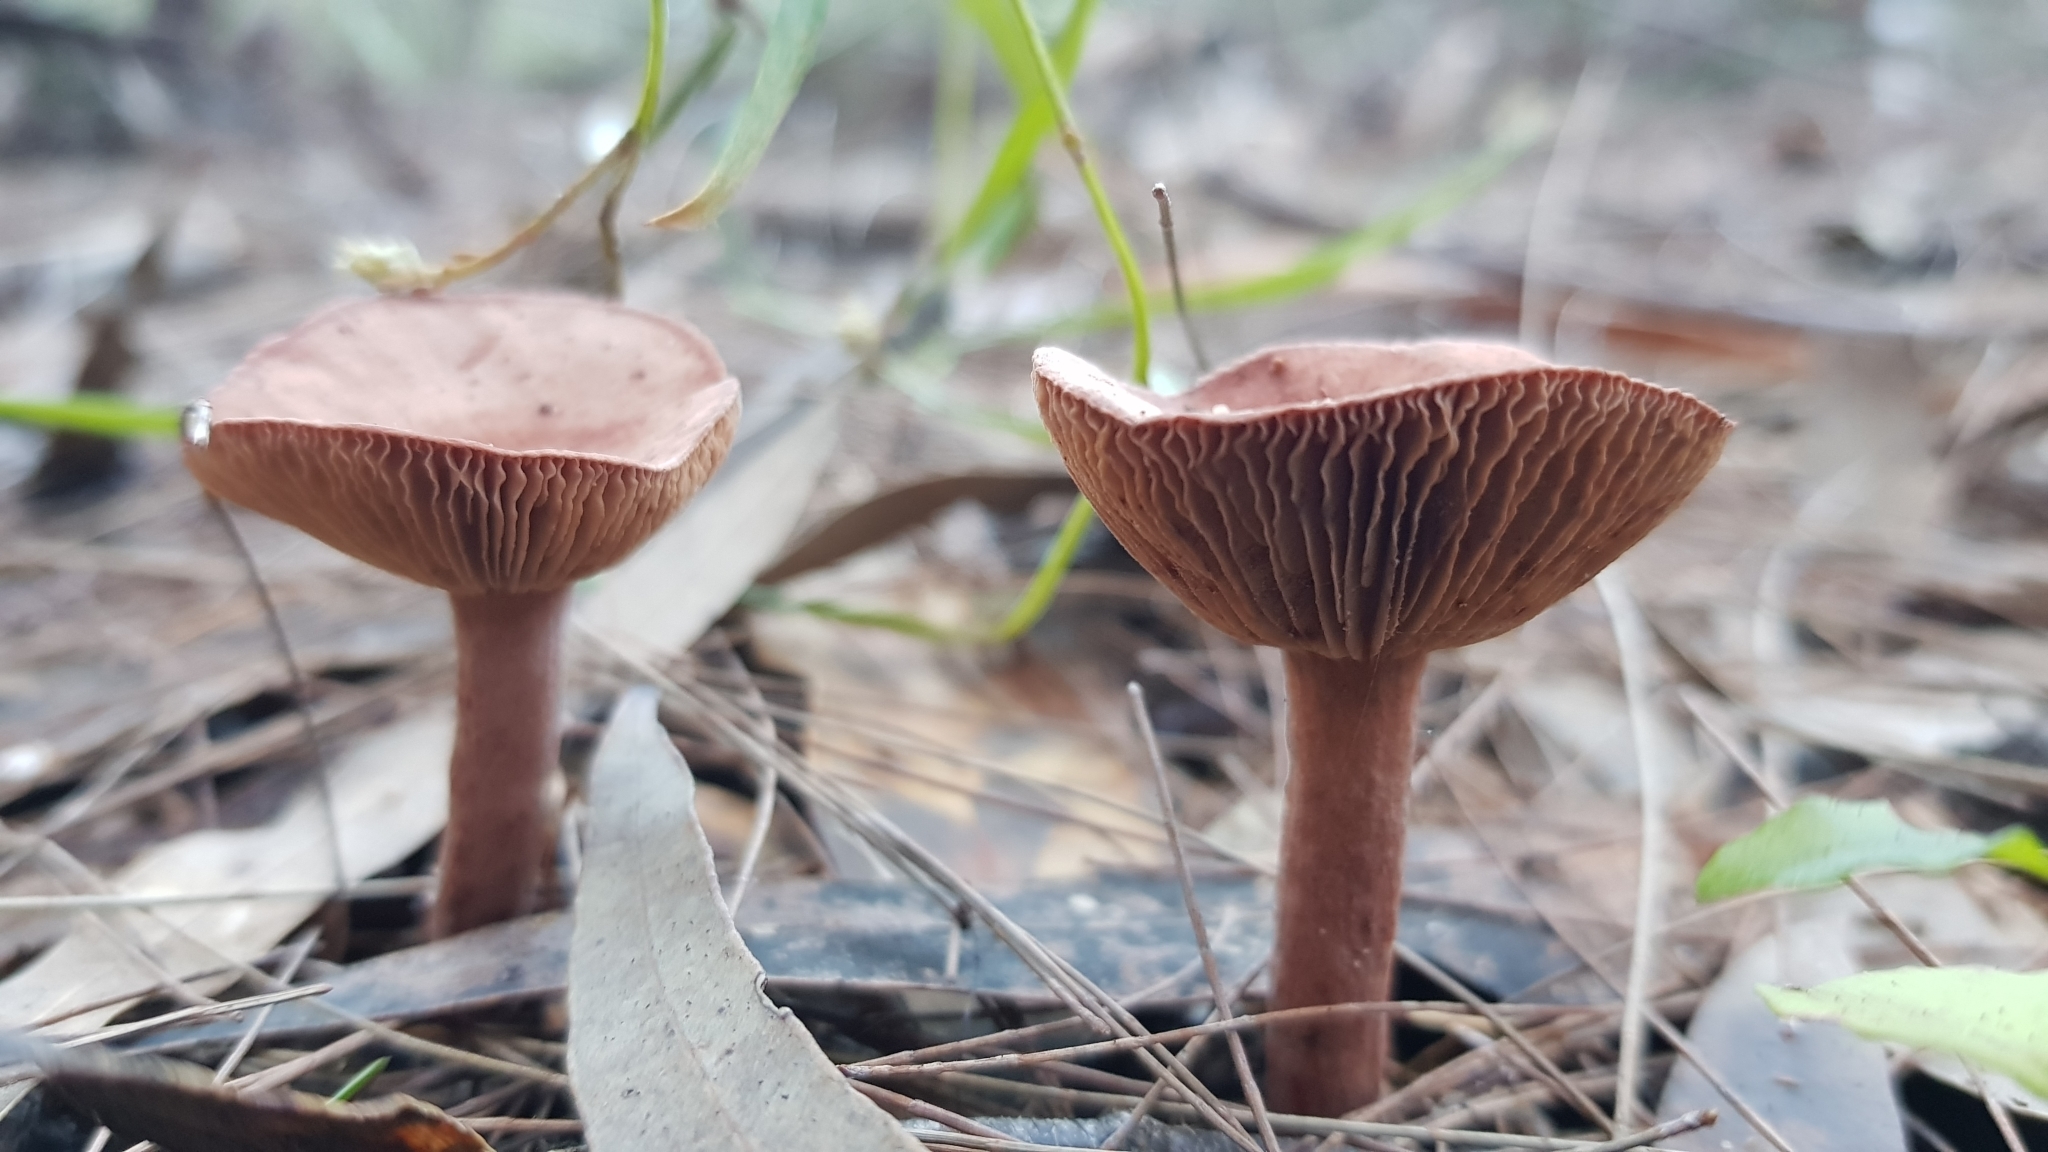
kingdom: Fungi
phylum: Basidiomycota
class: Agaricomycetes
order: Russulales
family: Russulaceae
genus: Lactarius
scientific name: Lactarius eucalypti
